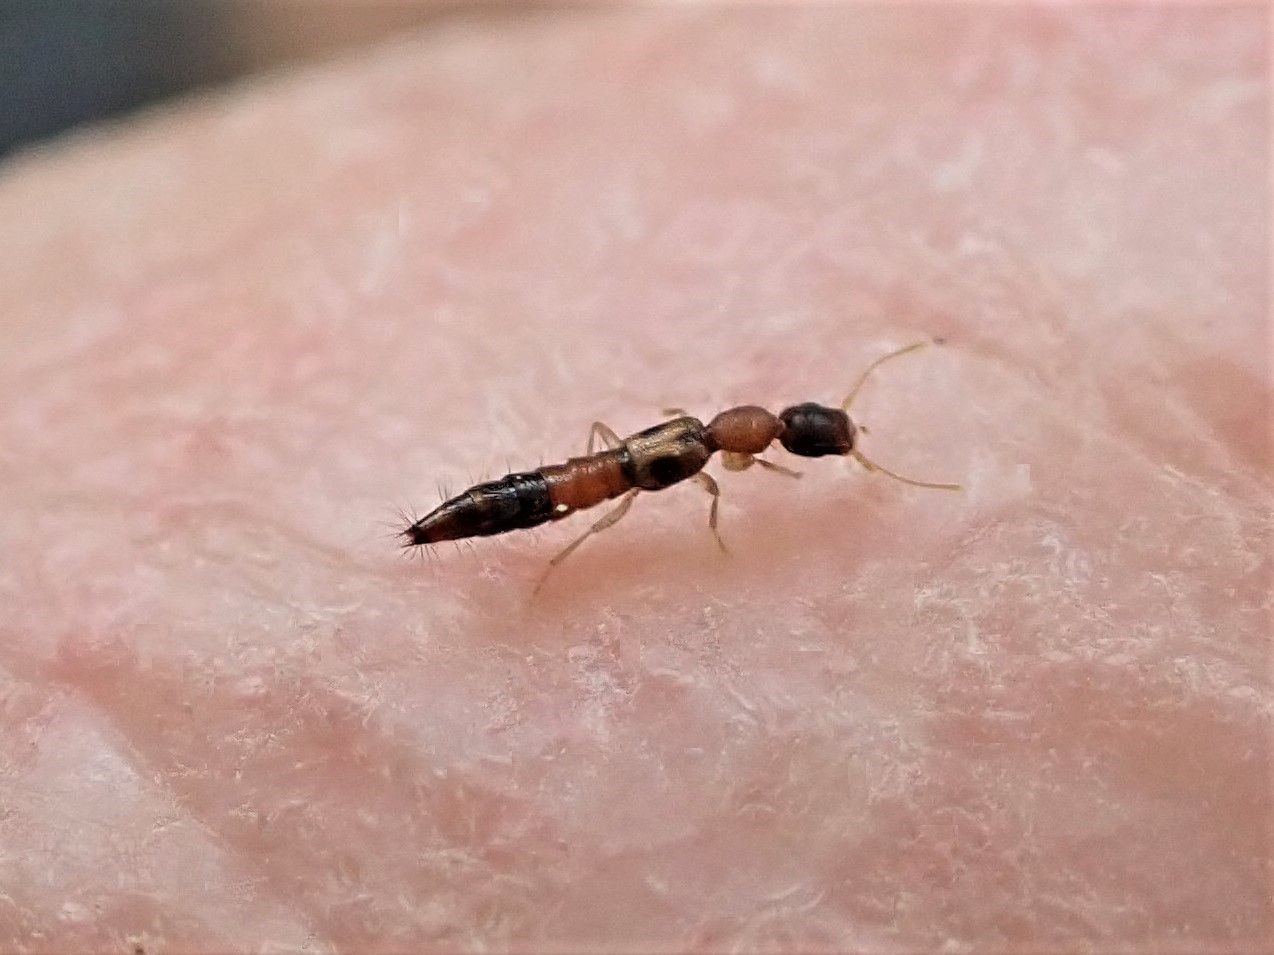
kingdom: Animalia
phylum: Arthropoda
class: Insecta
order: Coleoptera
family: Staphylinidae
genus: Astenus
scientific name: Astenus guttulus
